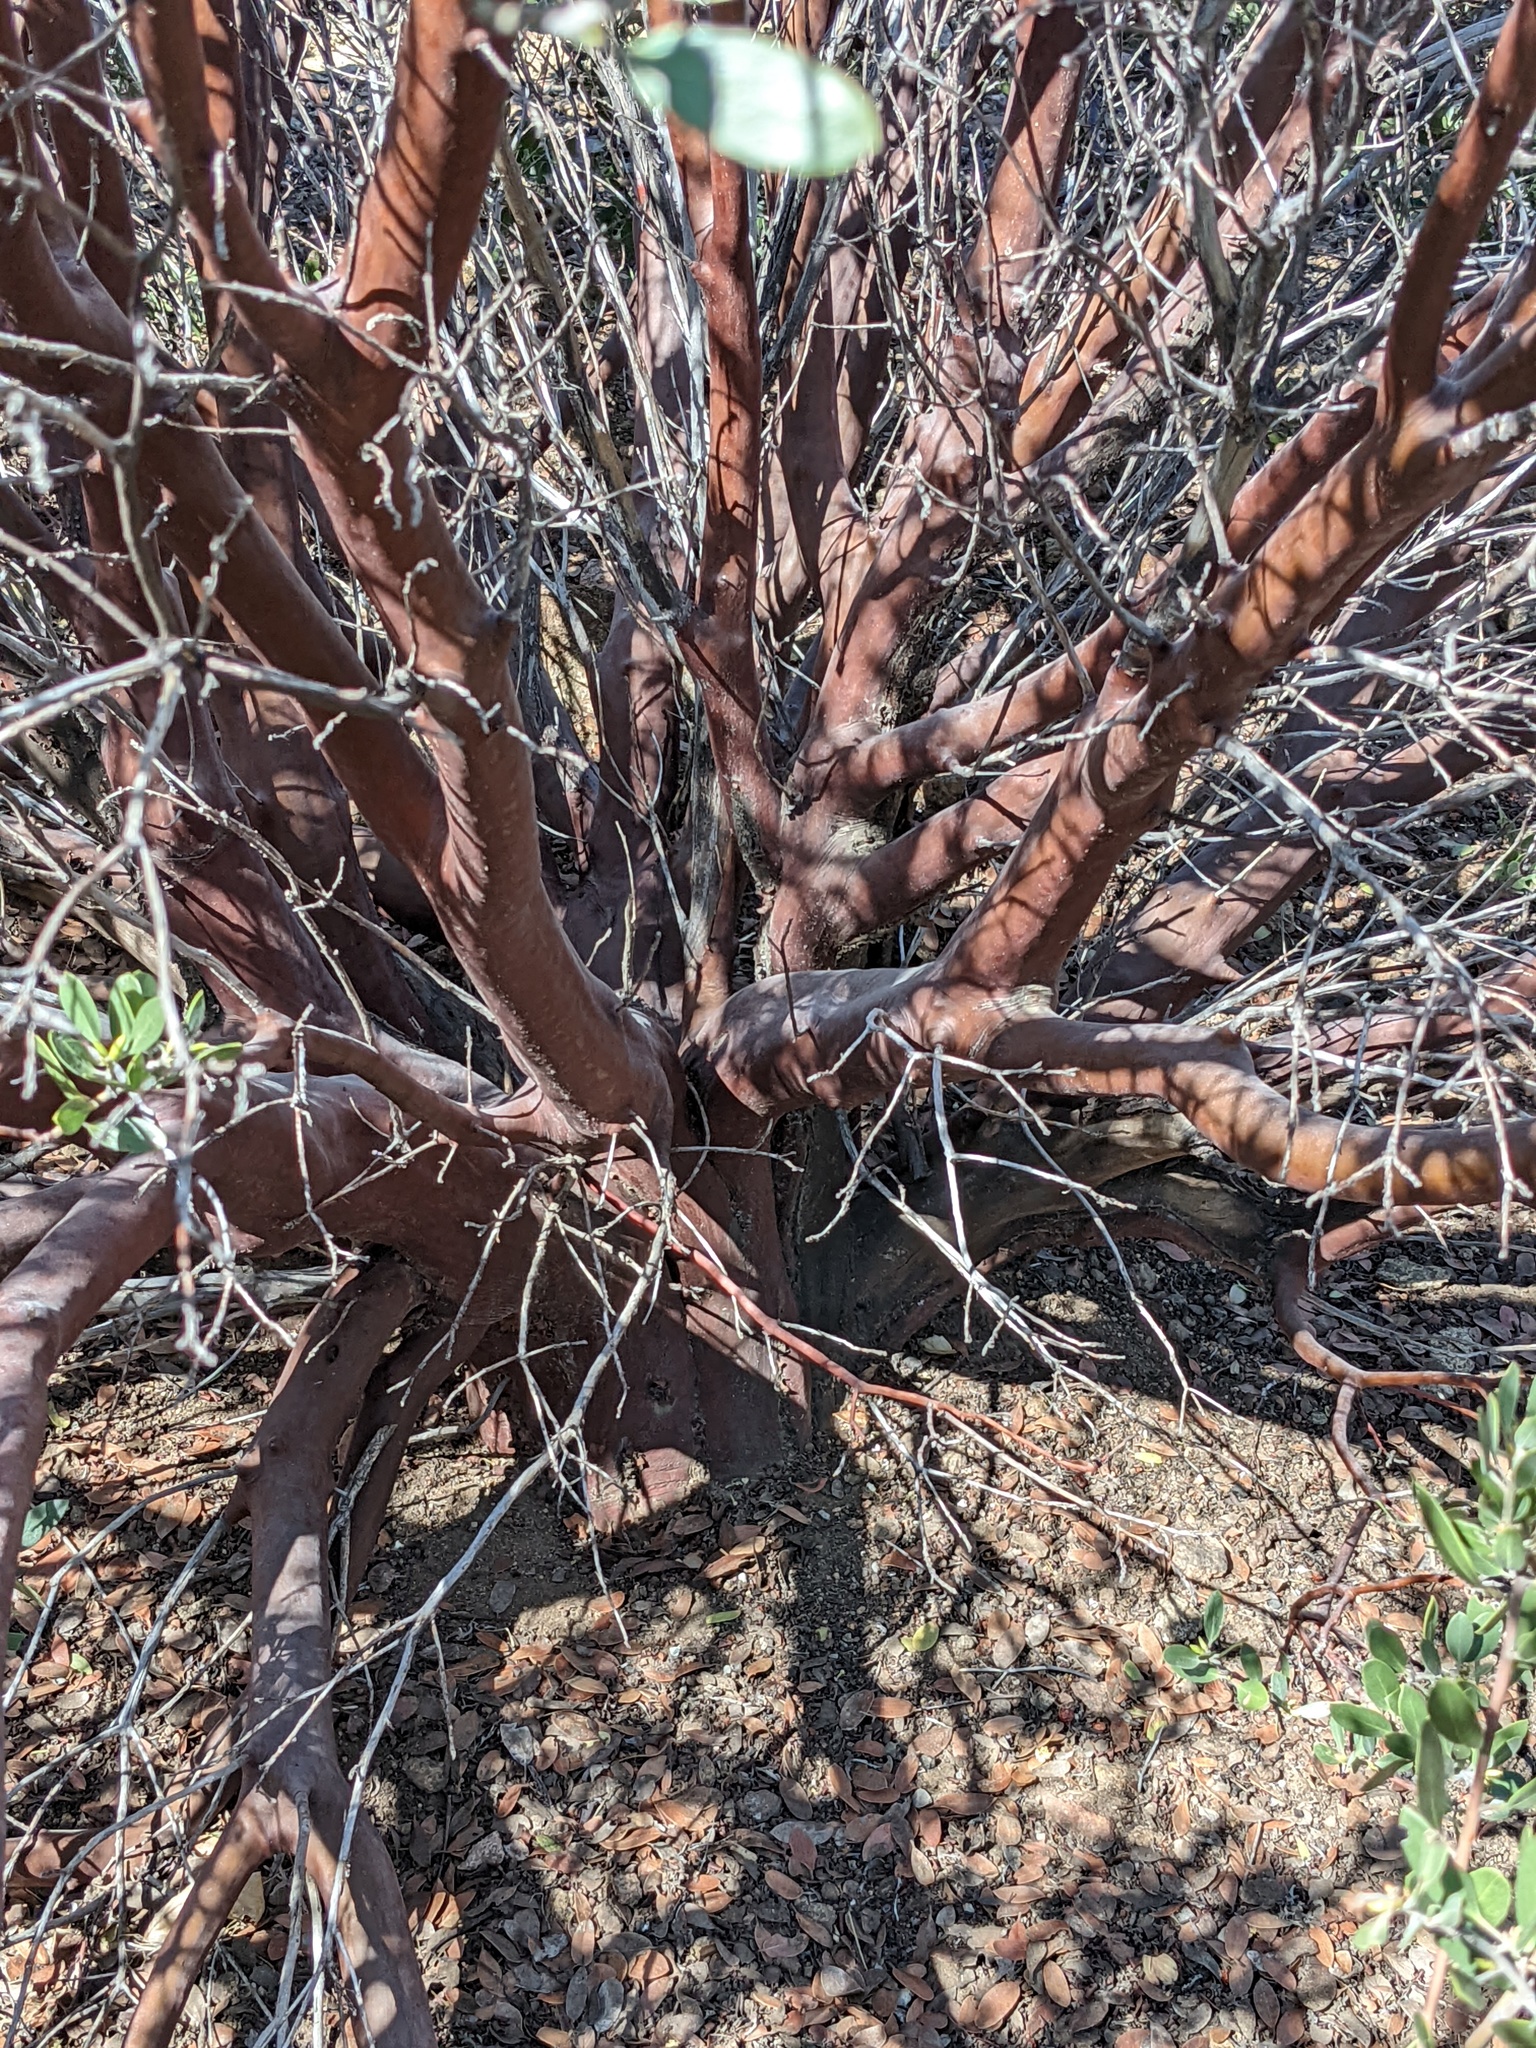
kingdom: Plantae
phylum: Tracheophyta
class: Magnoliopsida
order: Ericales
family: Ericaceae
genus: Arctostaphylos
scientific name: Arctostaphylos pungens
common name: Mexican manzanita
